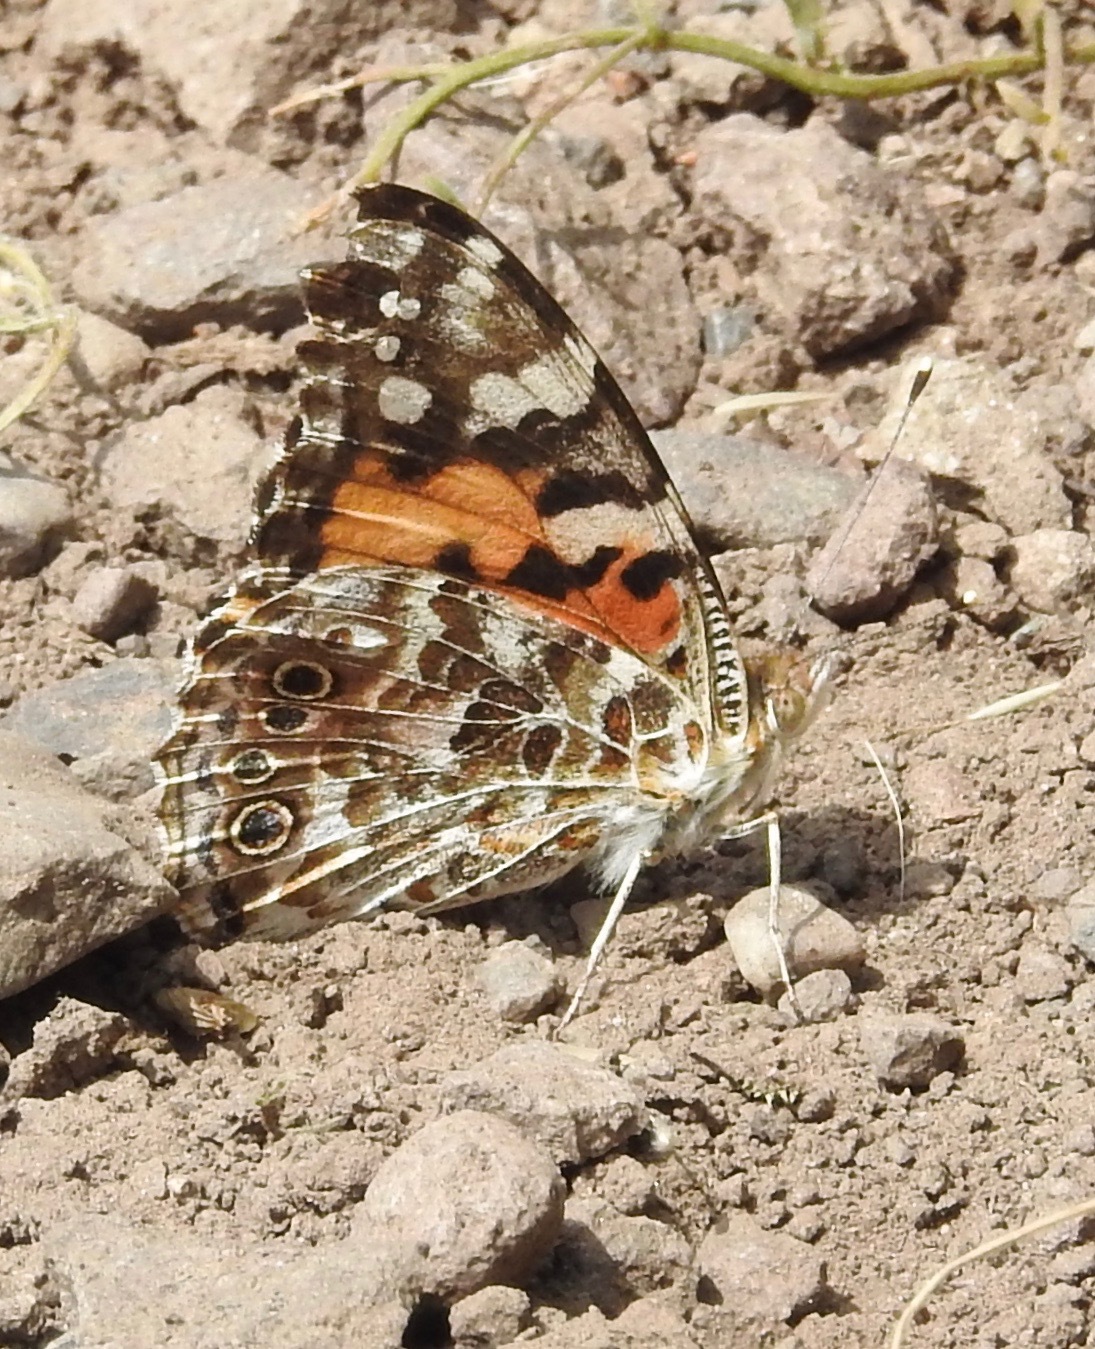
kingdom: Animalia
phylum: Arthropoda
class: Insecta
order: Lepidoptera
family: Nymphalidae
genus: Vanessa
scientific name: Vanessa cardui
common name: Painted lady
